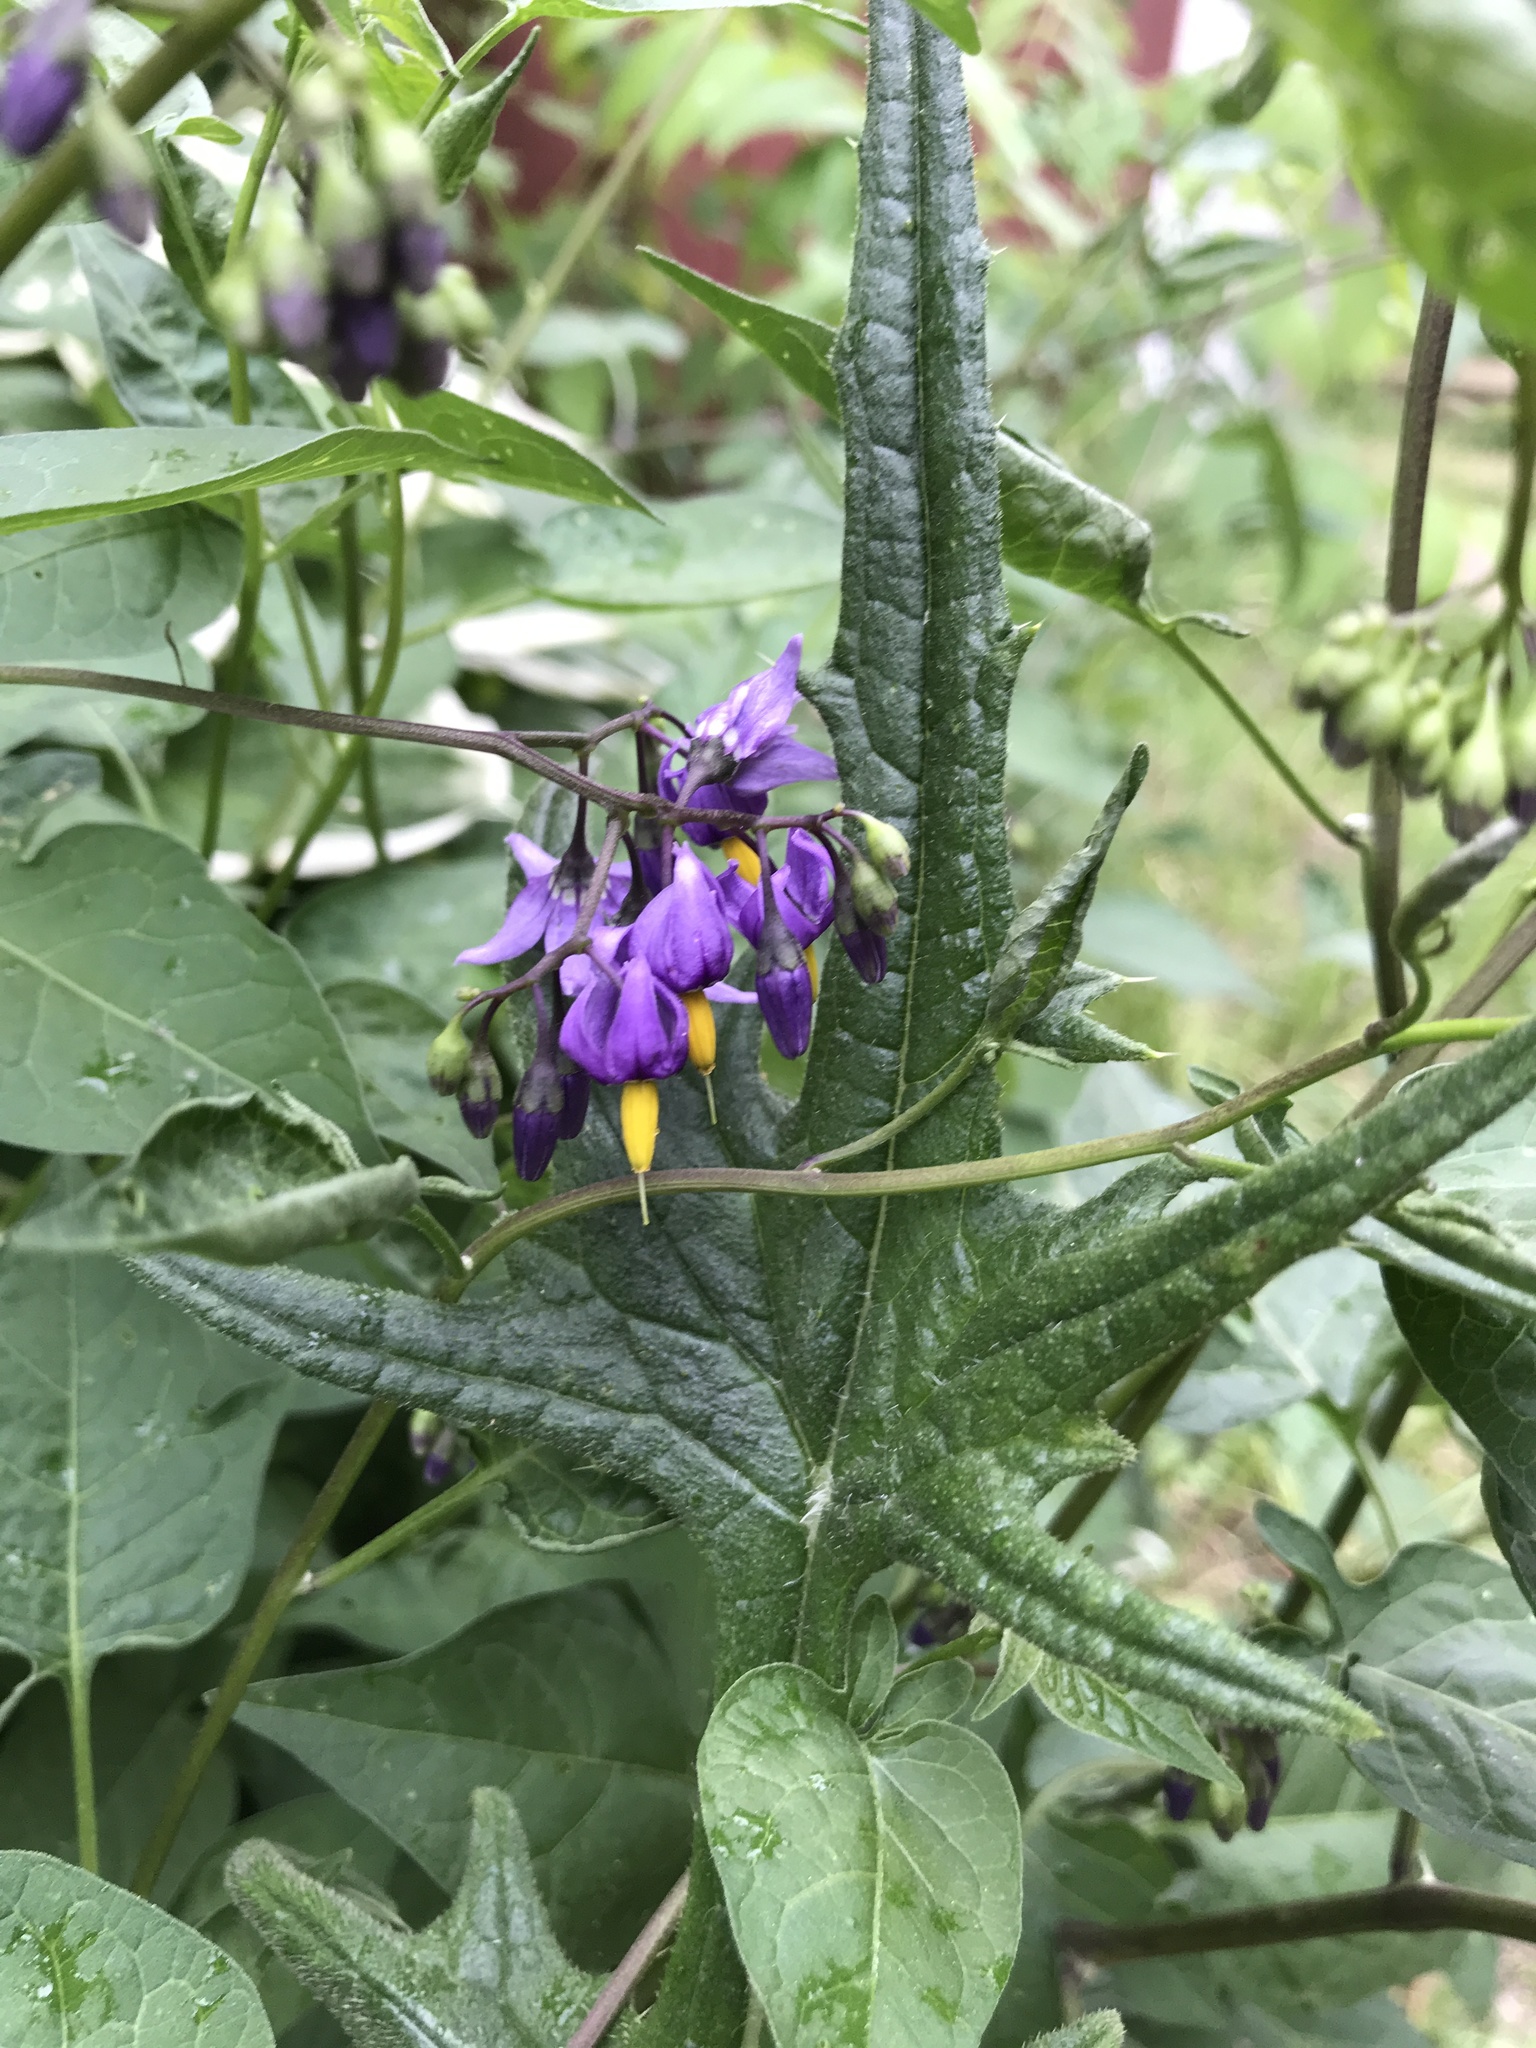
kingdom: Plantae
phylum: Tracheophyta
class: Magnoliopsida
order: Solanales
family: Solanaceae
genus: Solanum
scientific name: Solanum dulcamara
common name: Climbing nightshade
